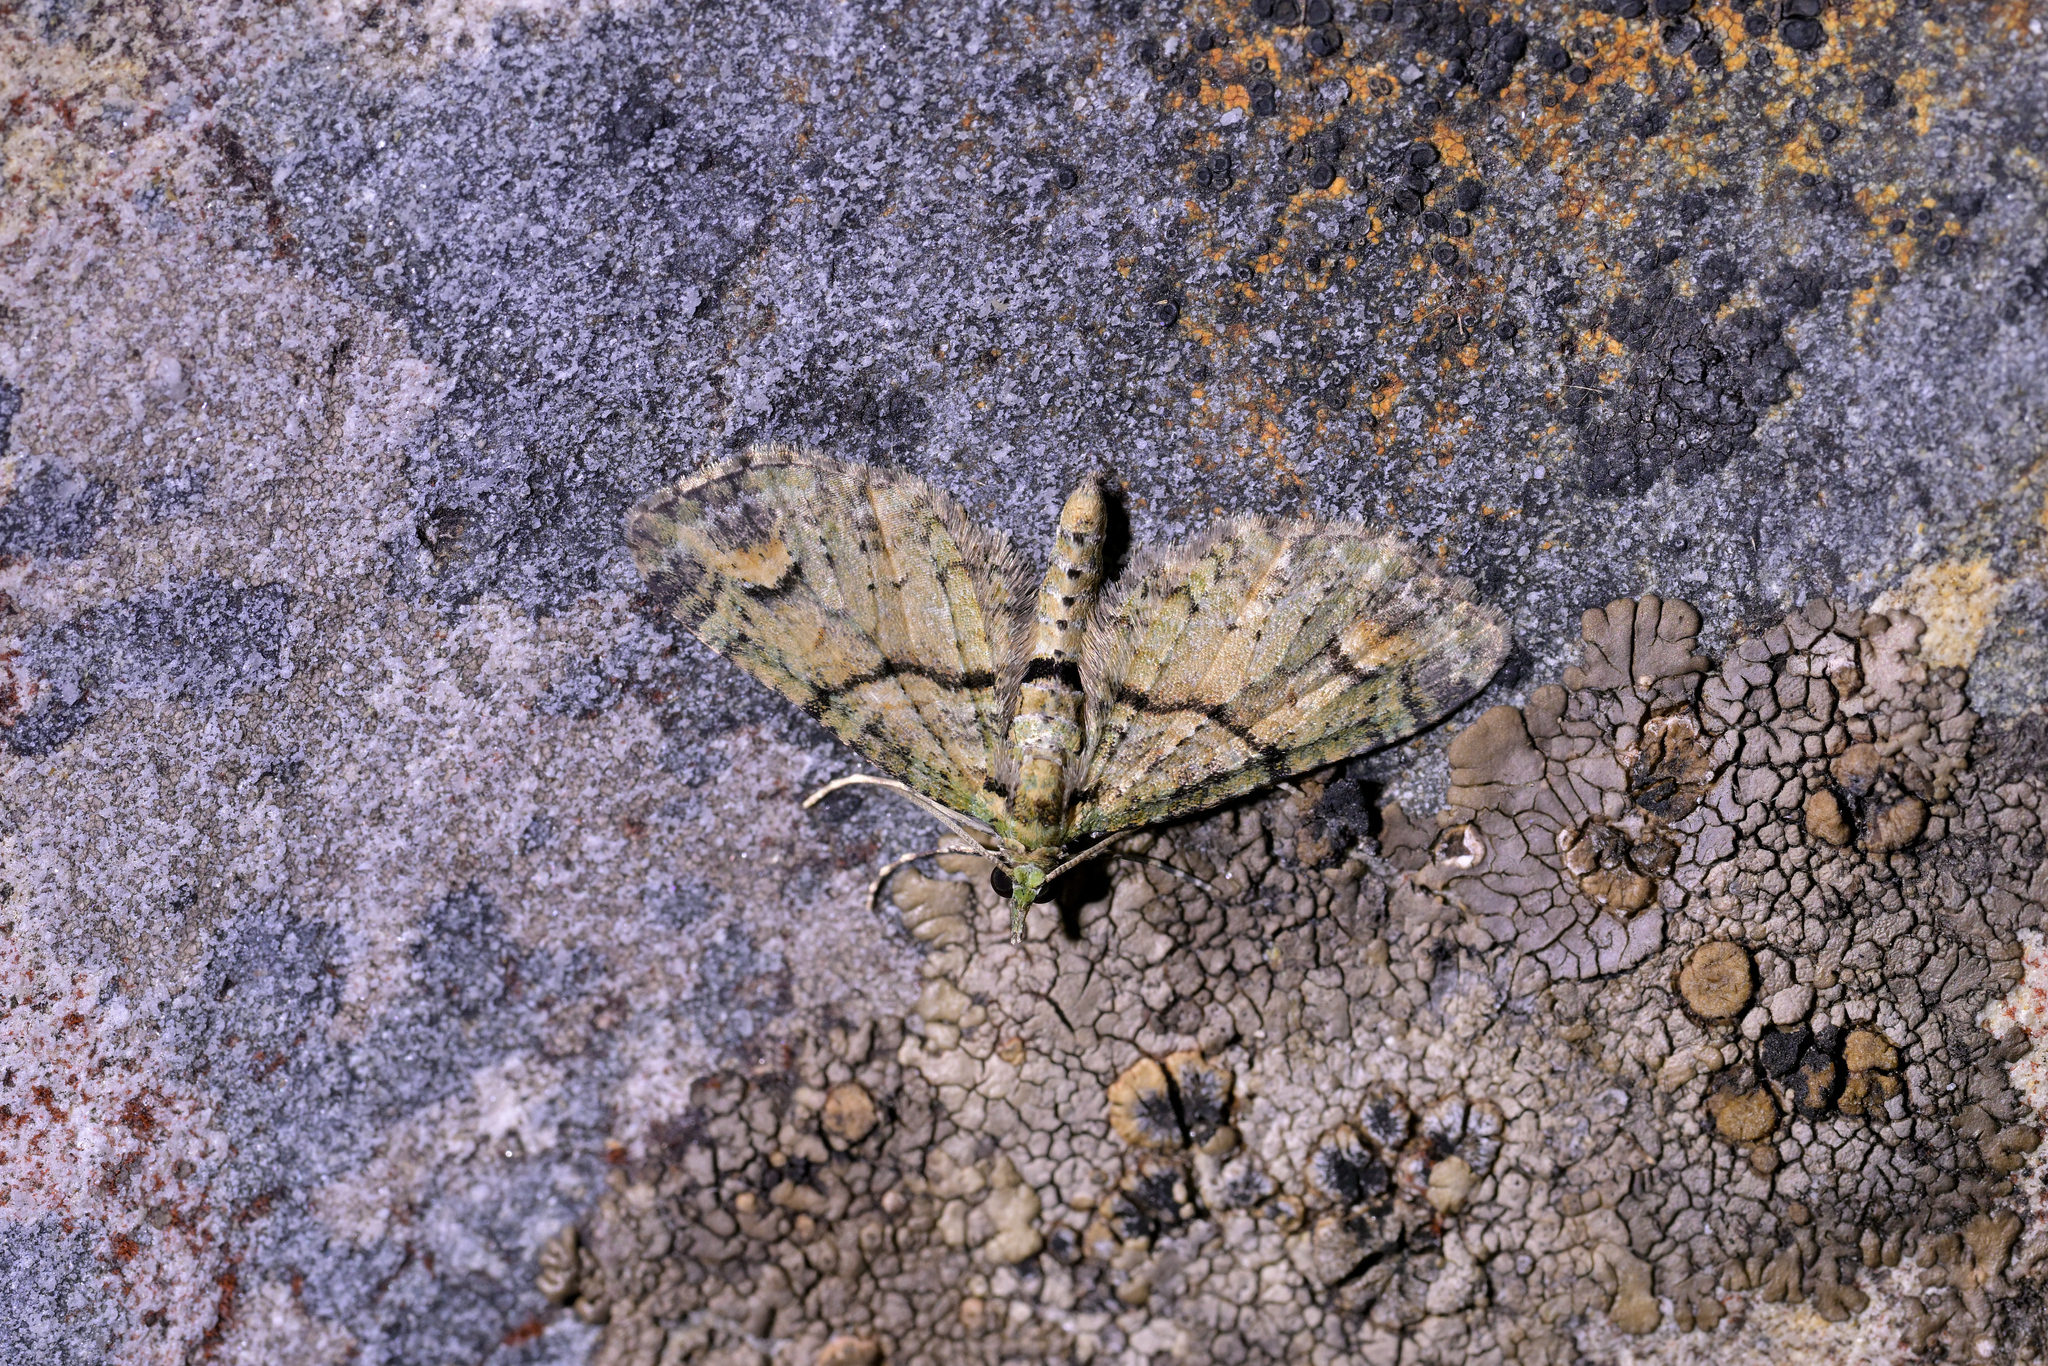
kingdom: Animalia
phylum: Arthropoda
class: Insecta
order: Lepidoptera
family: Geometridae
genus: Idaea
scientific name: Idaea mutanda
